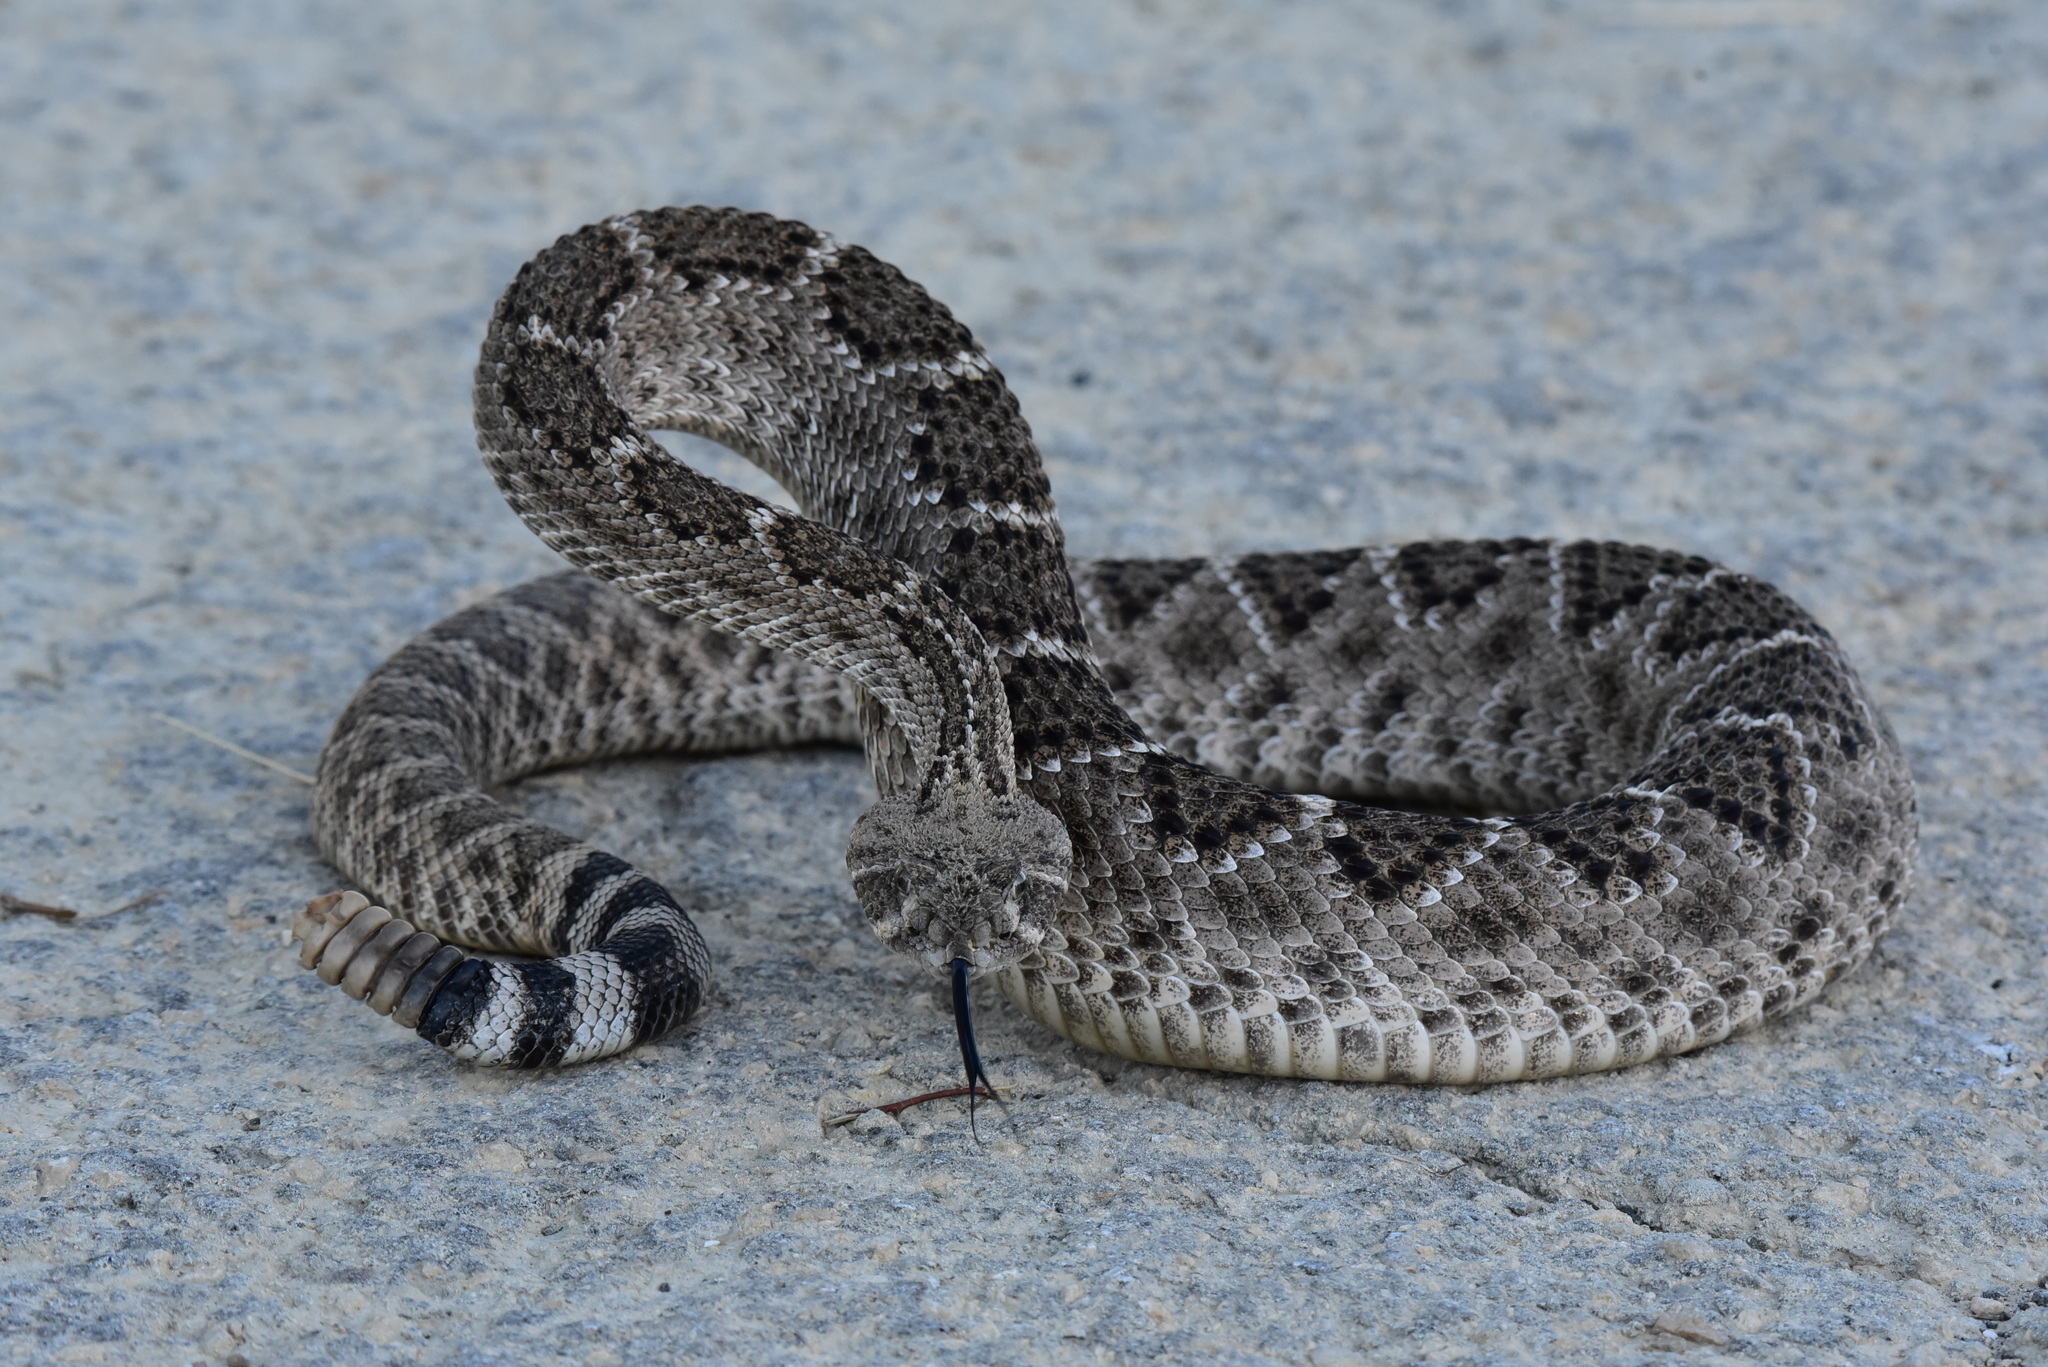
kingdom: Animalia
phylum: Chordata
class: Squamata
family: Viperidae
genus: Crotalus
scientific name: Crotalus atrox
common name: Western diamond-backed rattlesnake
